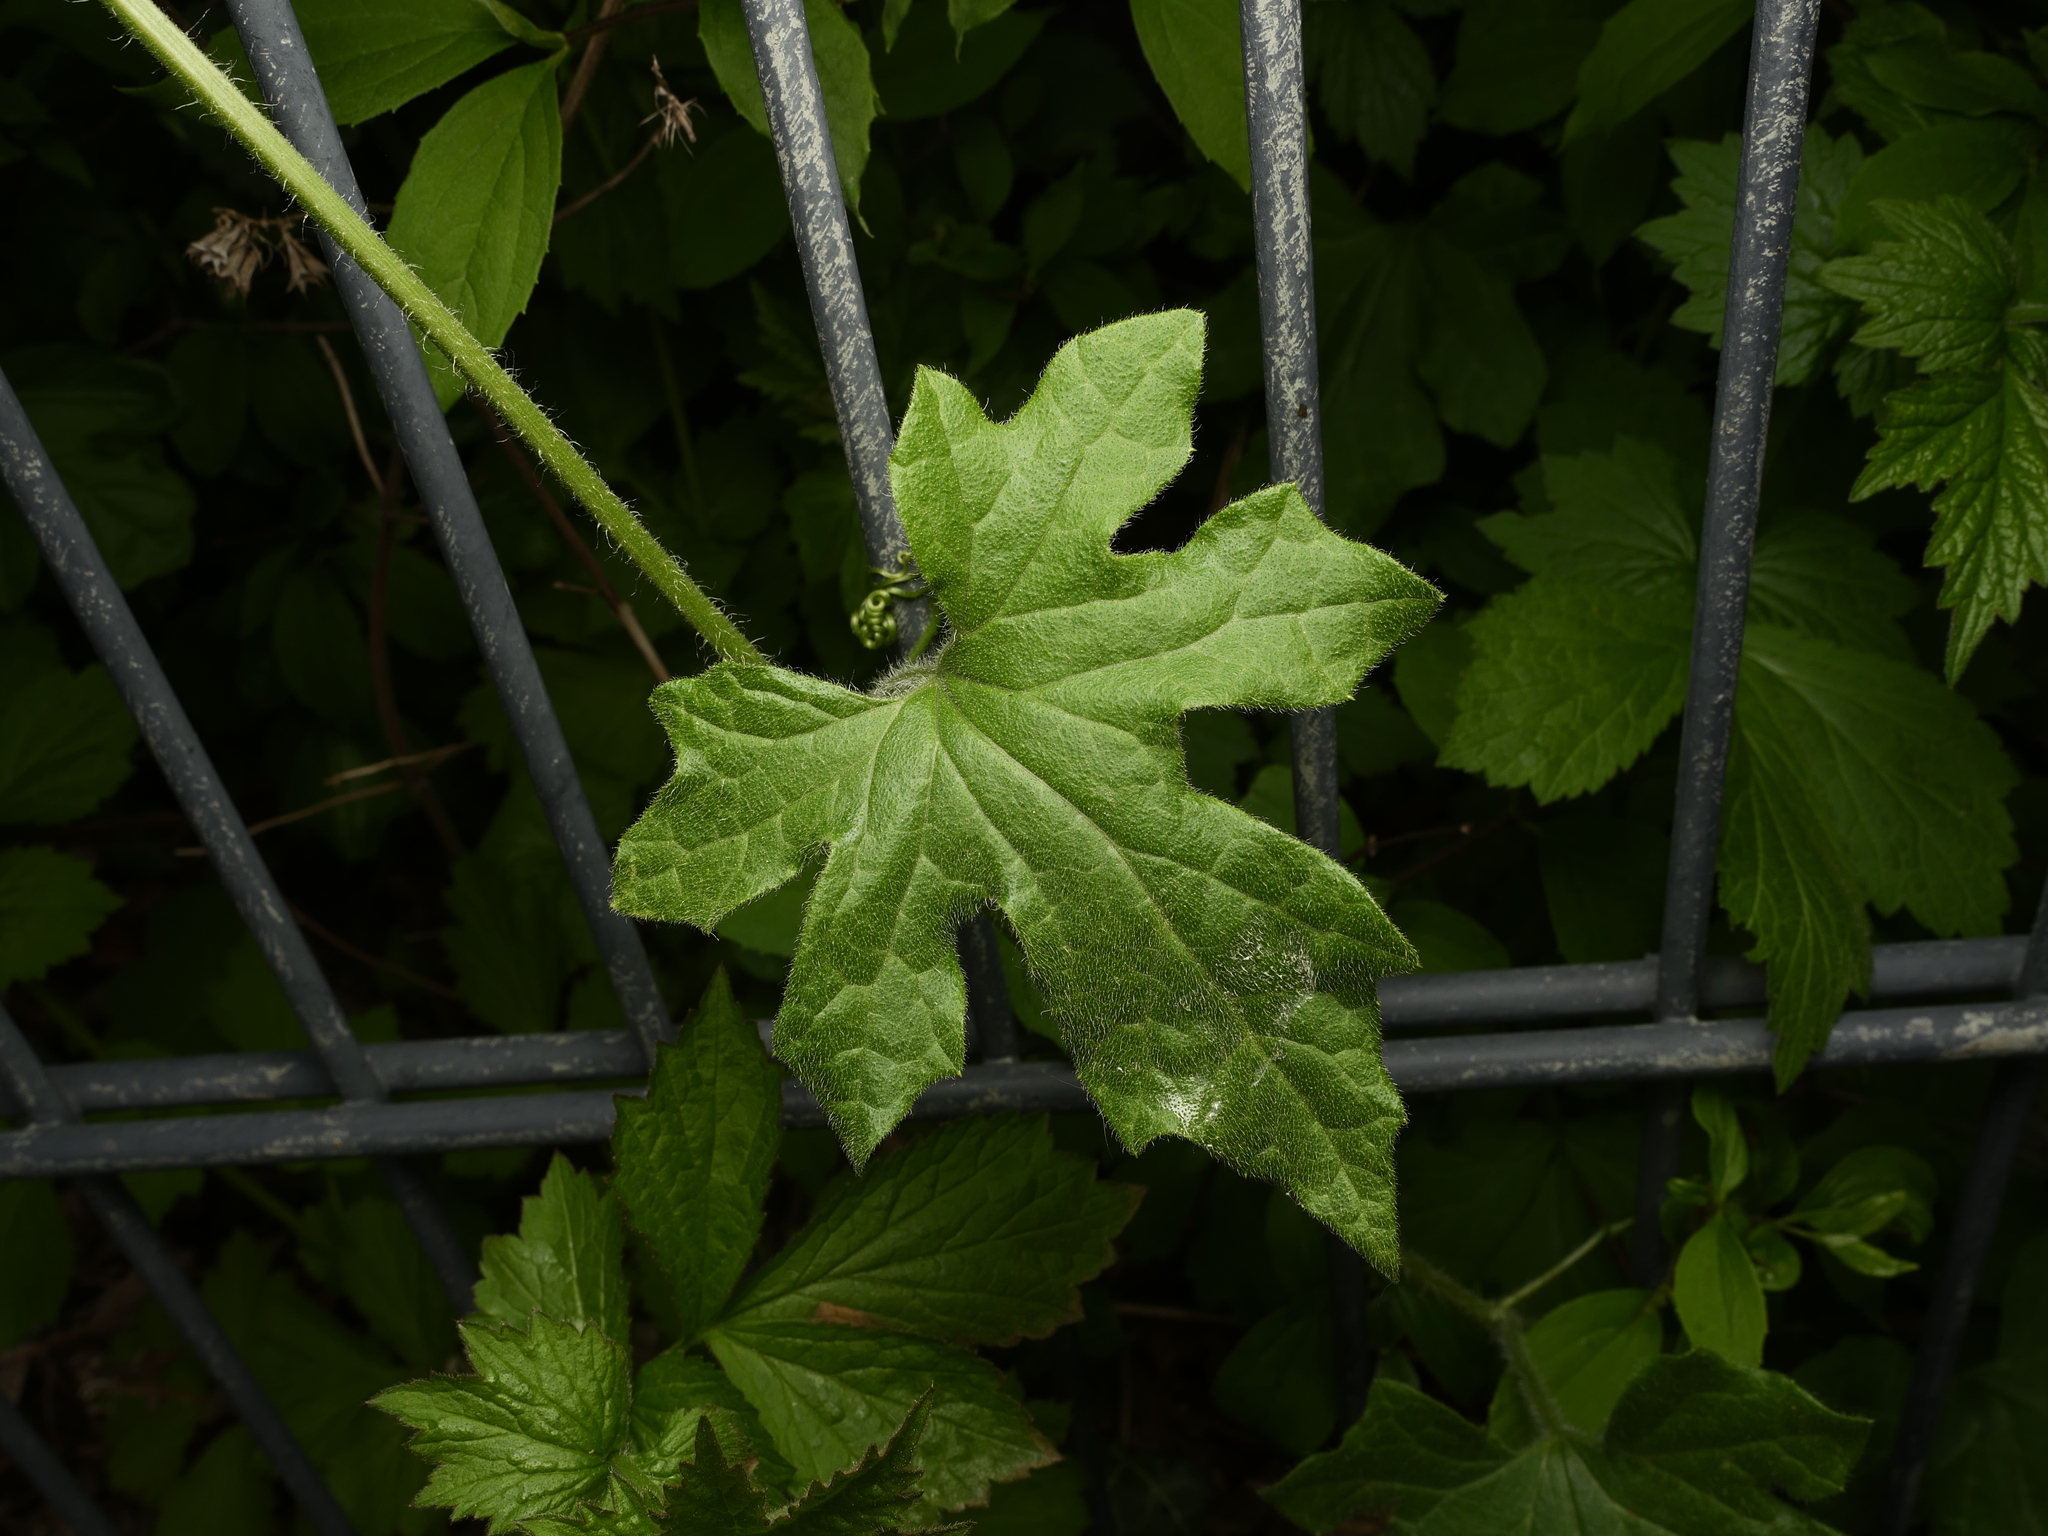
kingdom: Plantae
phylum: Tracheophyta
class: Magnoliopsida
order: Cucurbitales
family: Cucurbitaceae
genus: Bryonia
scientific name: Bryonia cretica
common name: Cretan bryony
